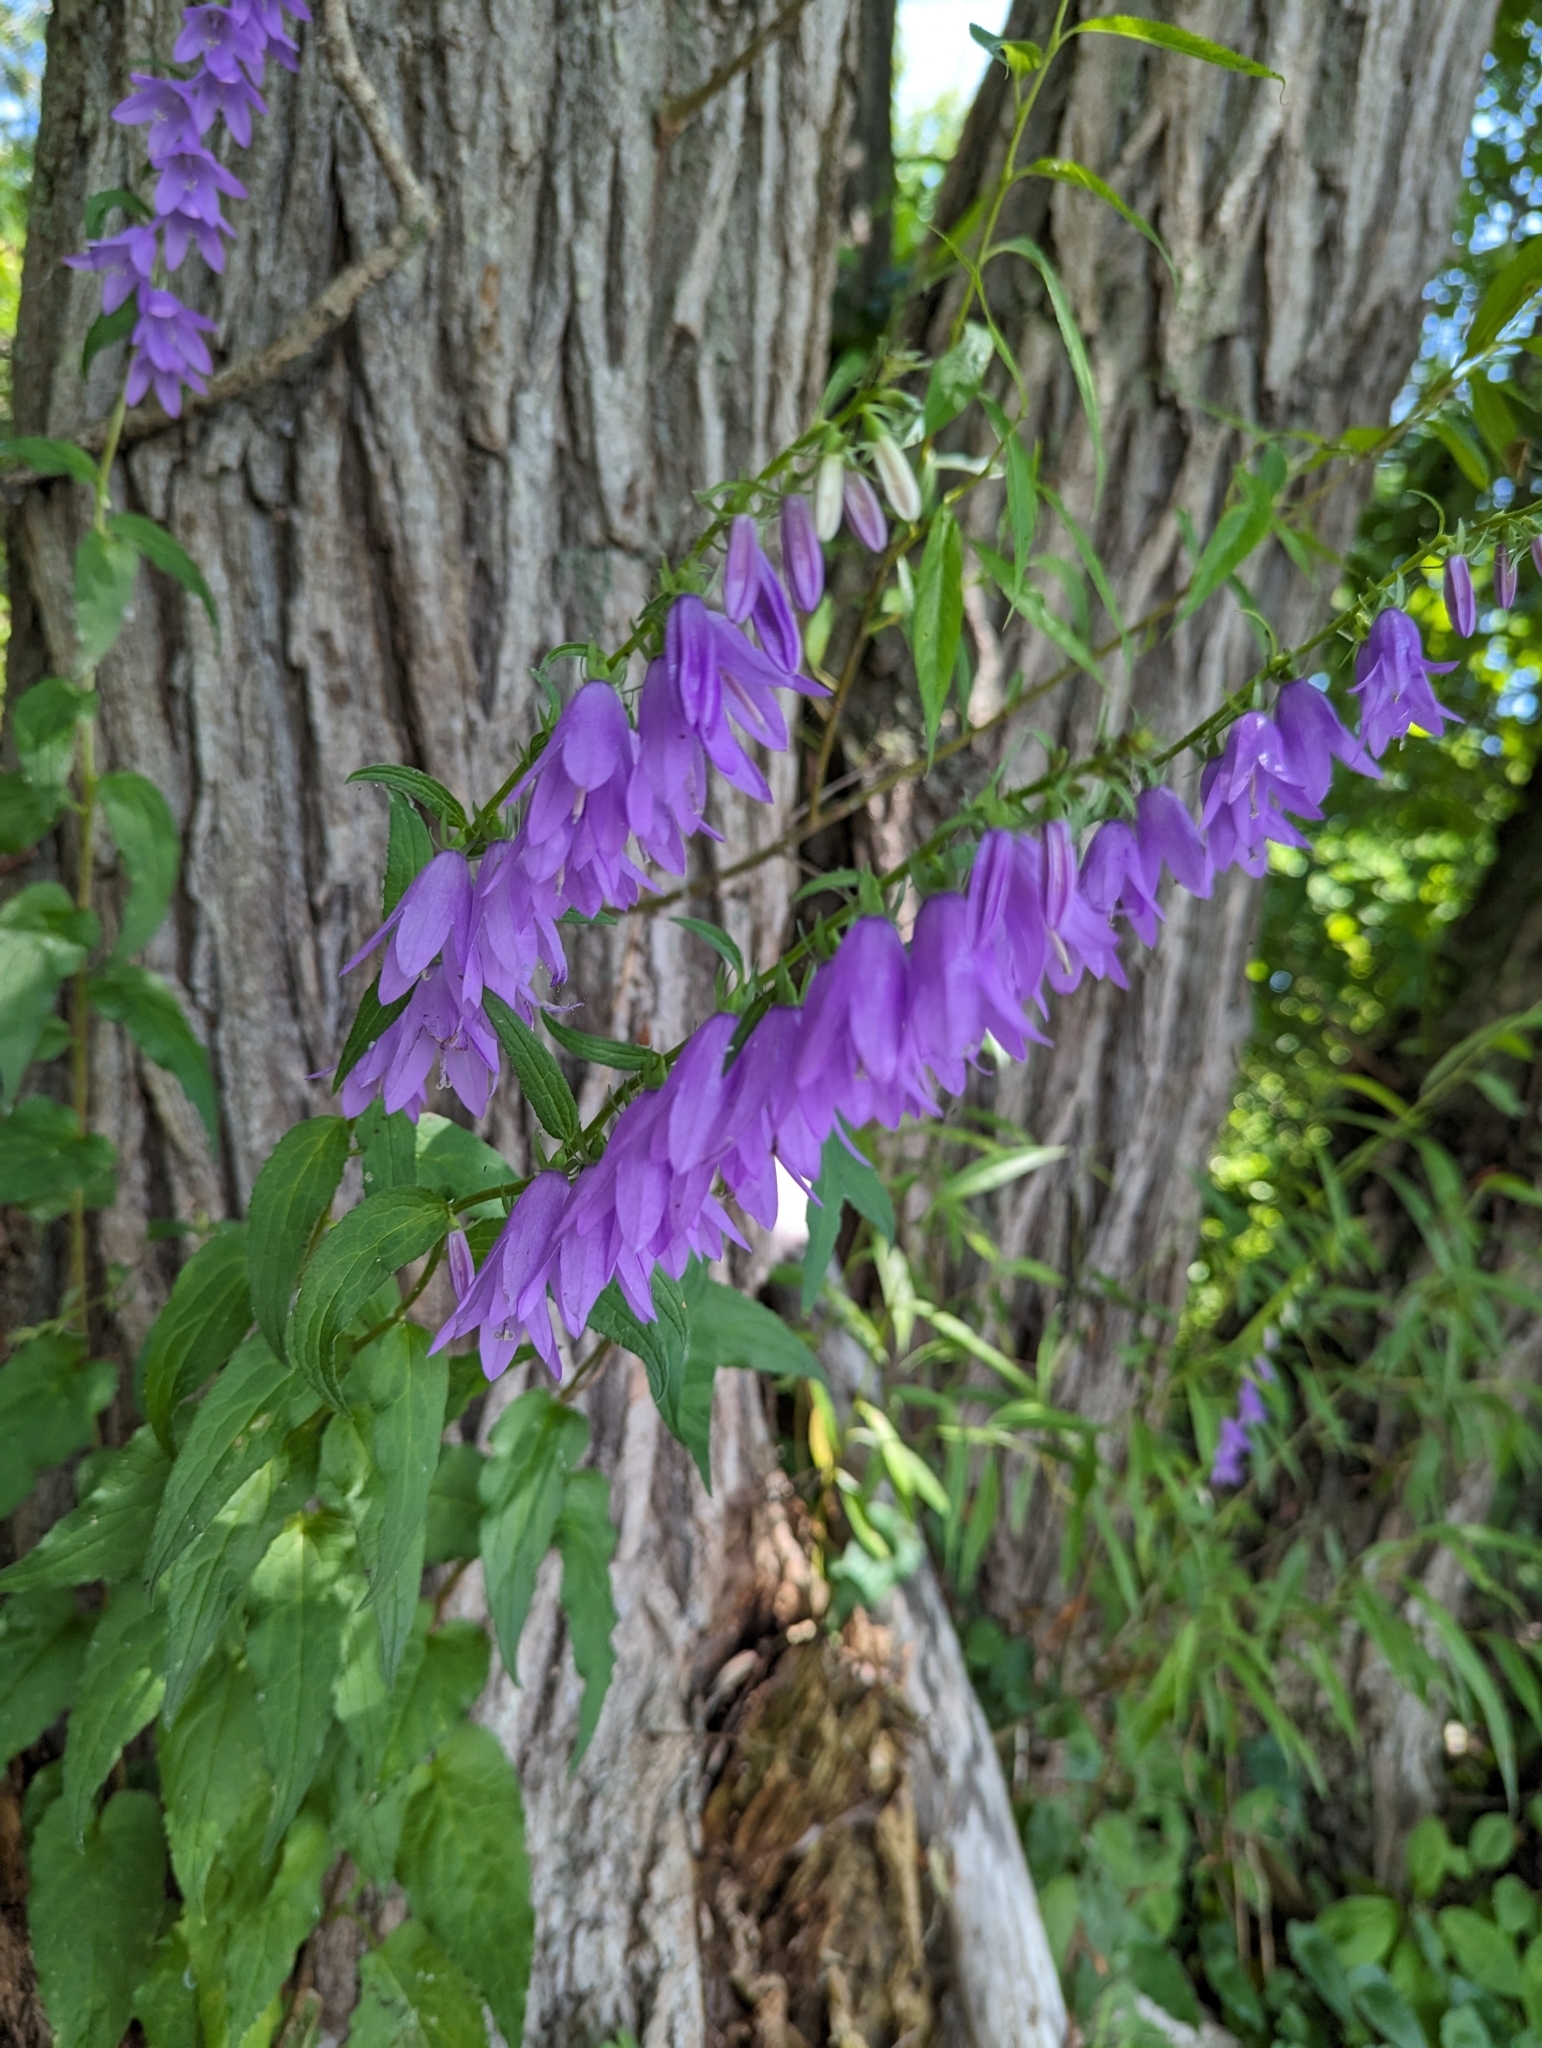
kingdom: Plantae
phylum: Tracheophyta
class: Magnoliopsida
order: Asterales
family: Campanulaceae
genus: Campanula
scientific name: Campanula rapunculoides
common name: Creeping bellflower
